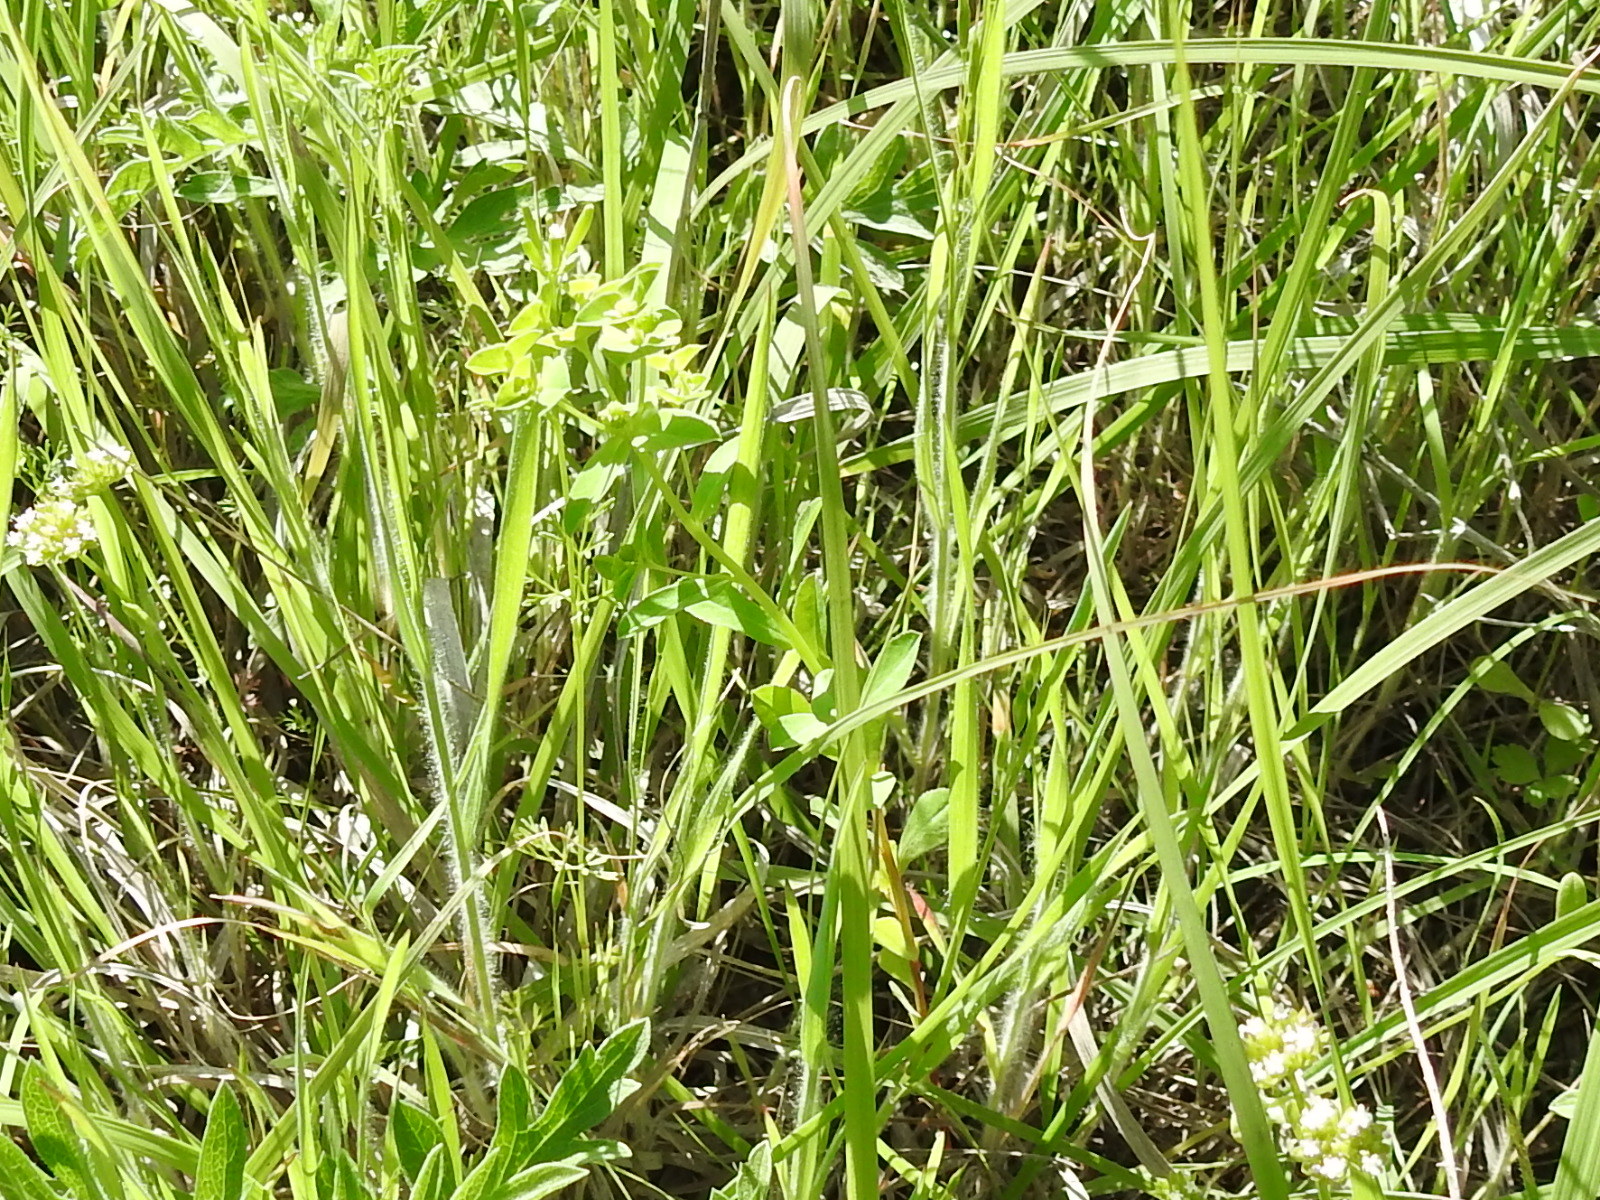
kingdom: Plantae
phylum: Tracheophyta
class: Magnoliopsida
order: Malpighiales
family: Euphorbiaceae
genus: Euphorbia
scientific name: Euphorbia spathulata
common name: Blunt spurge
